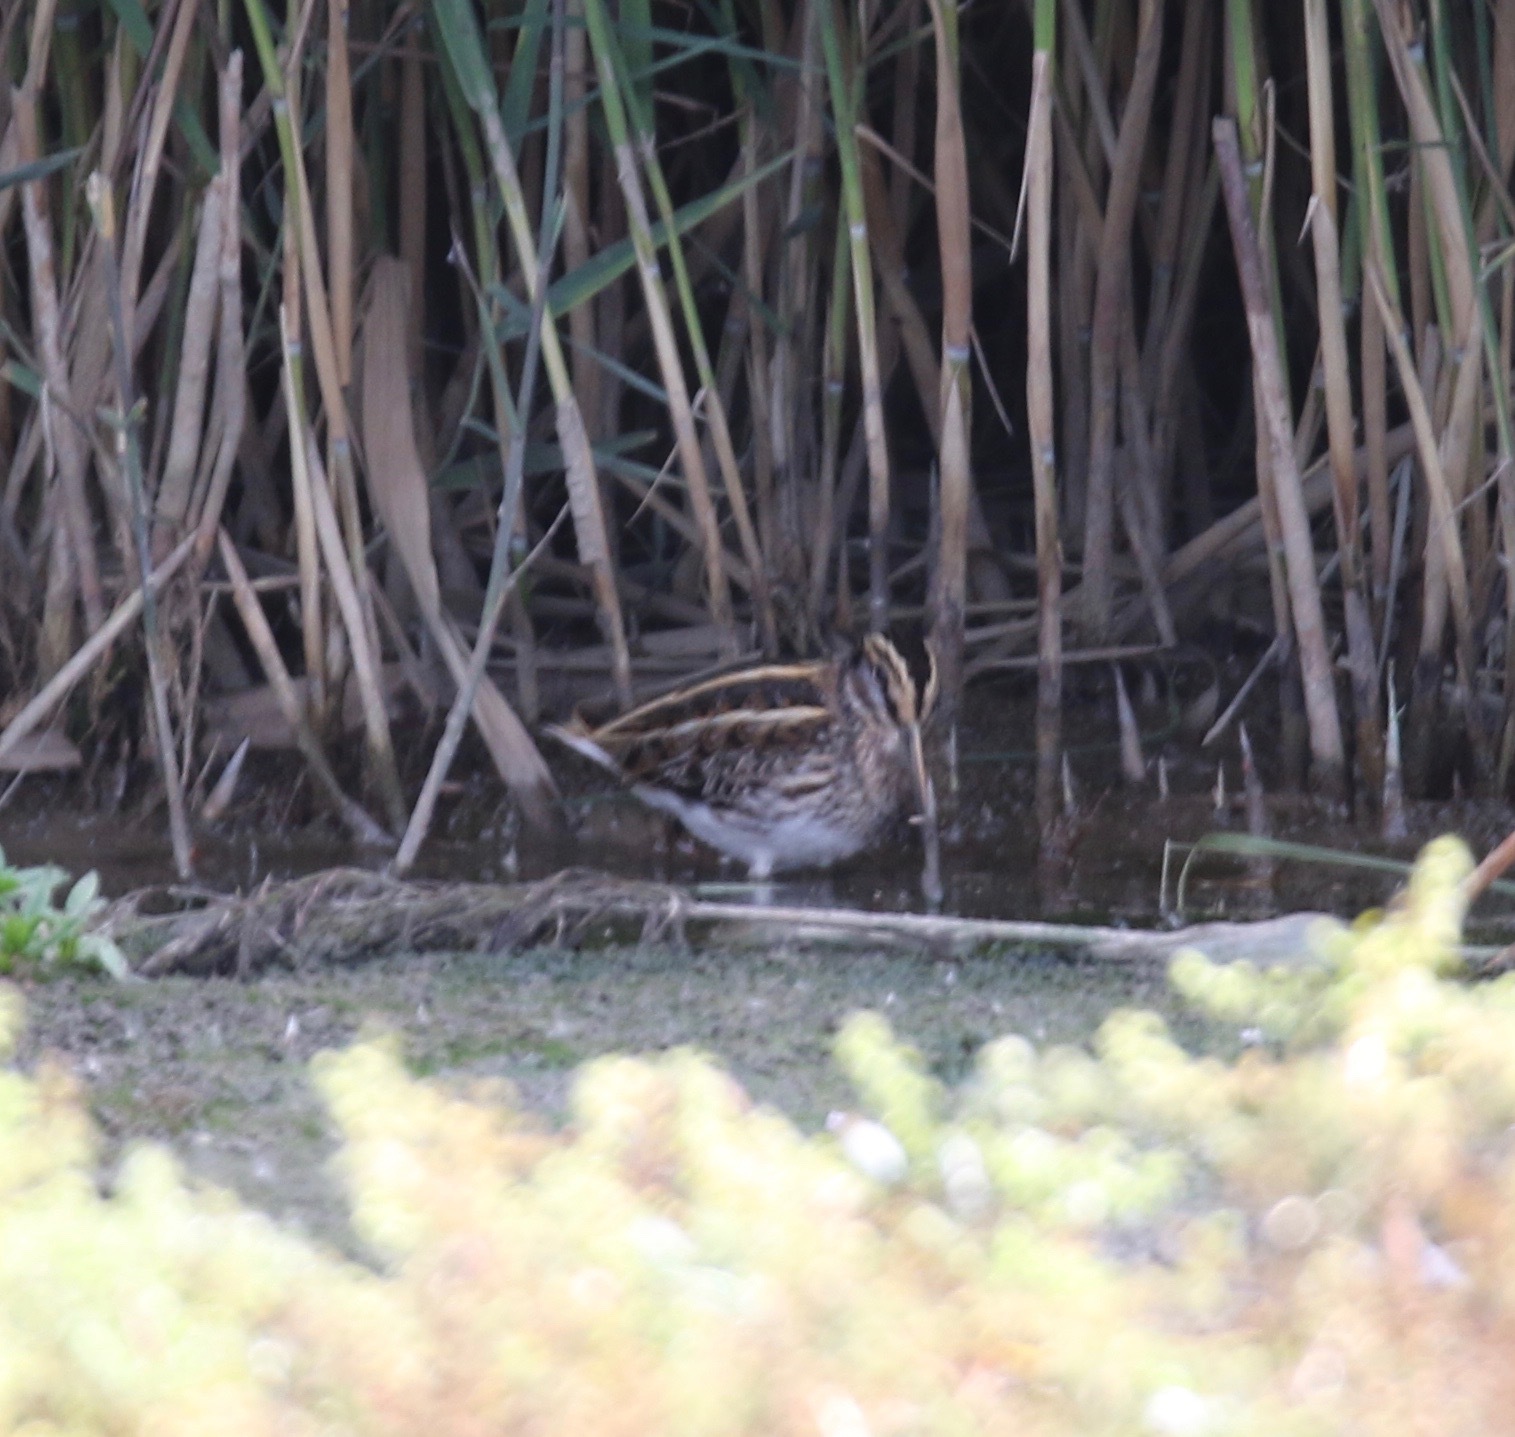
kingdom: Animalia
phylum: Chordata
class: Aves
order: Charadriiformes
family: Scolopacidae
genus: Lymnocryptes
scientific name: Lymnocryptes minimus
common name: Jack snipe
